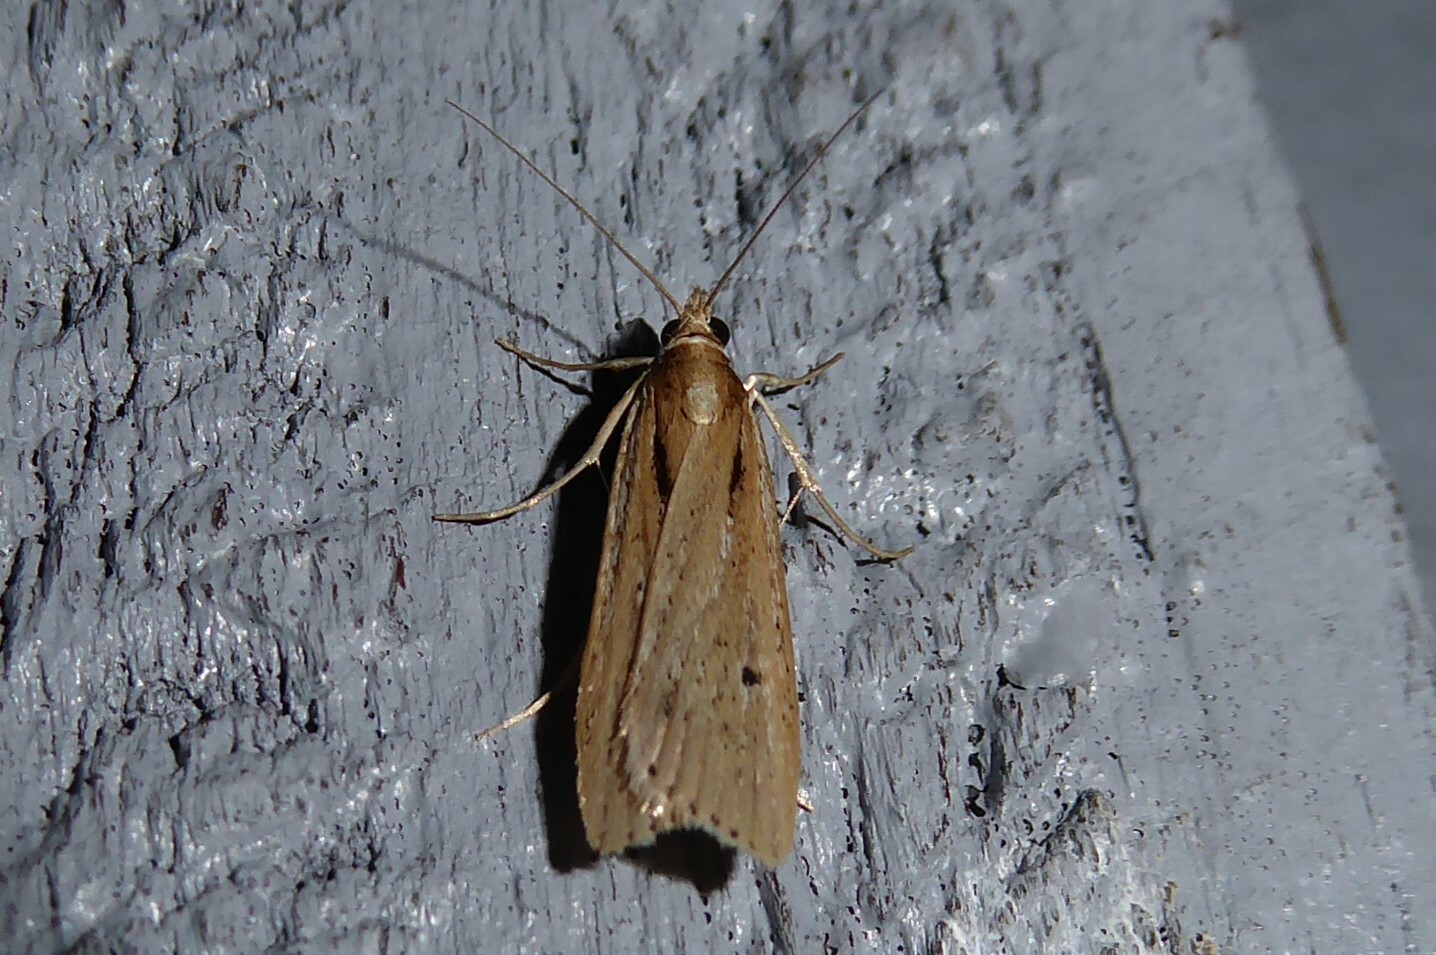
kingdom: Animalia
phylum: Arthropoda
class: Insecta
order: Lepidoptera
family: Crambidae
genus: Eudonia
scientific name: Eudonia sabulosella
